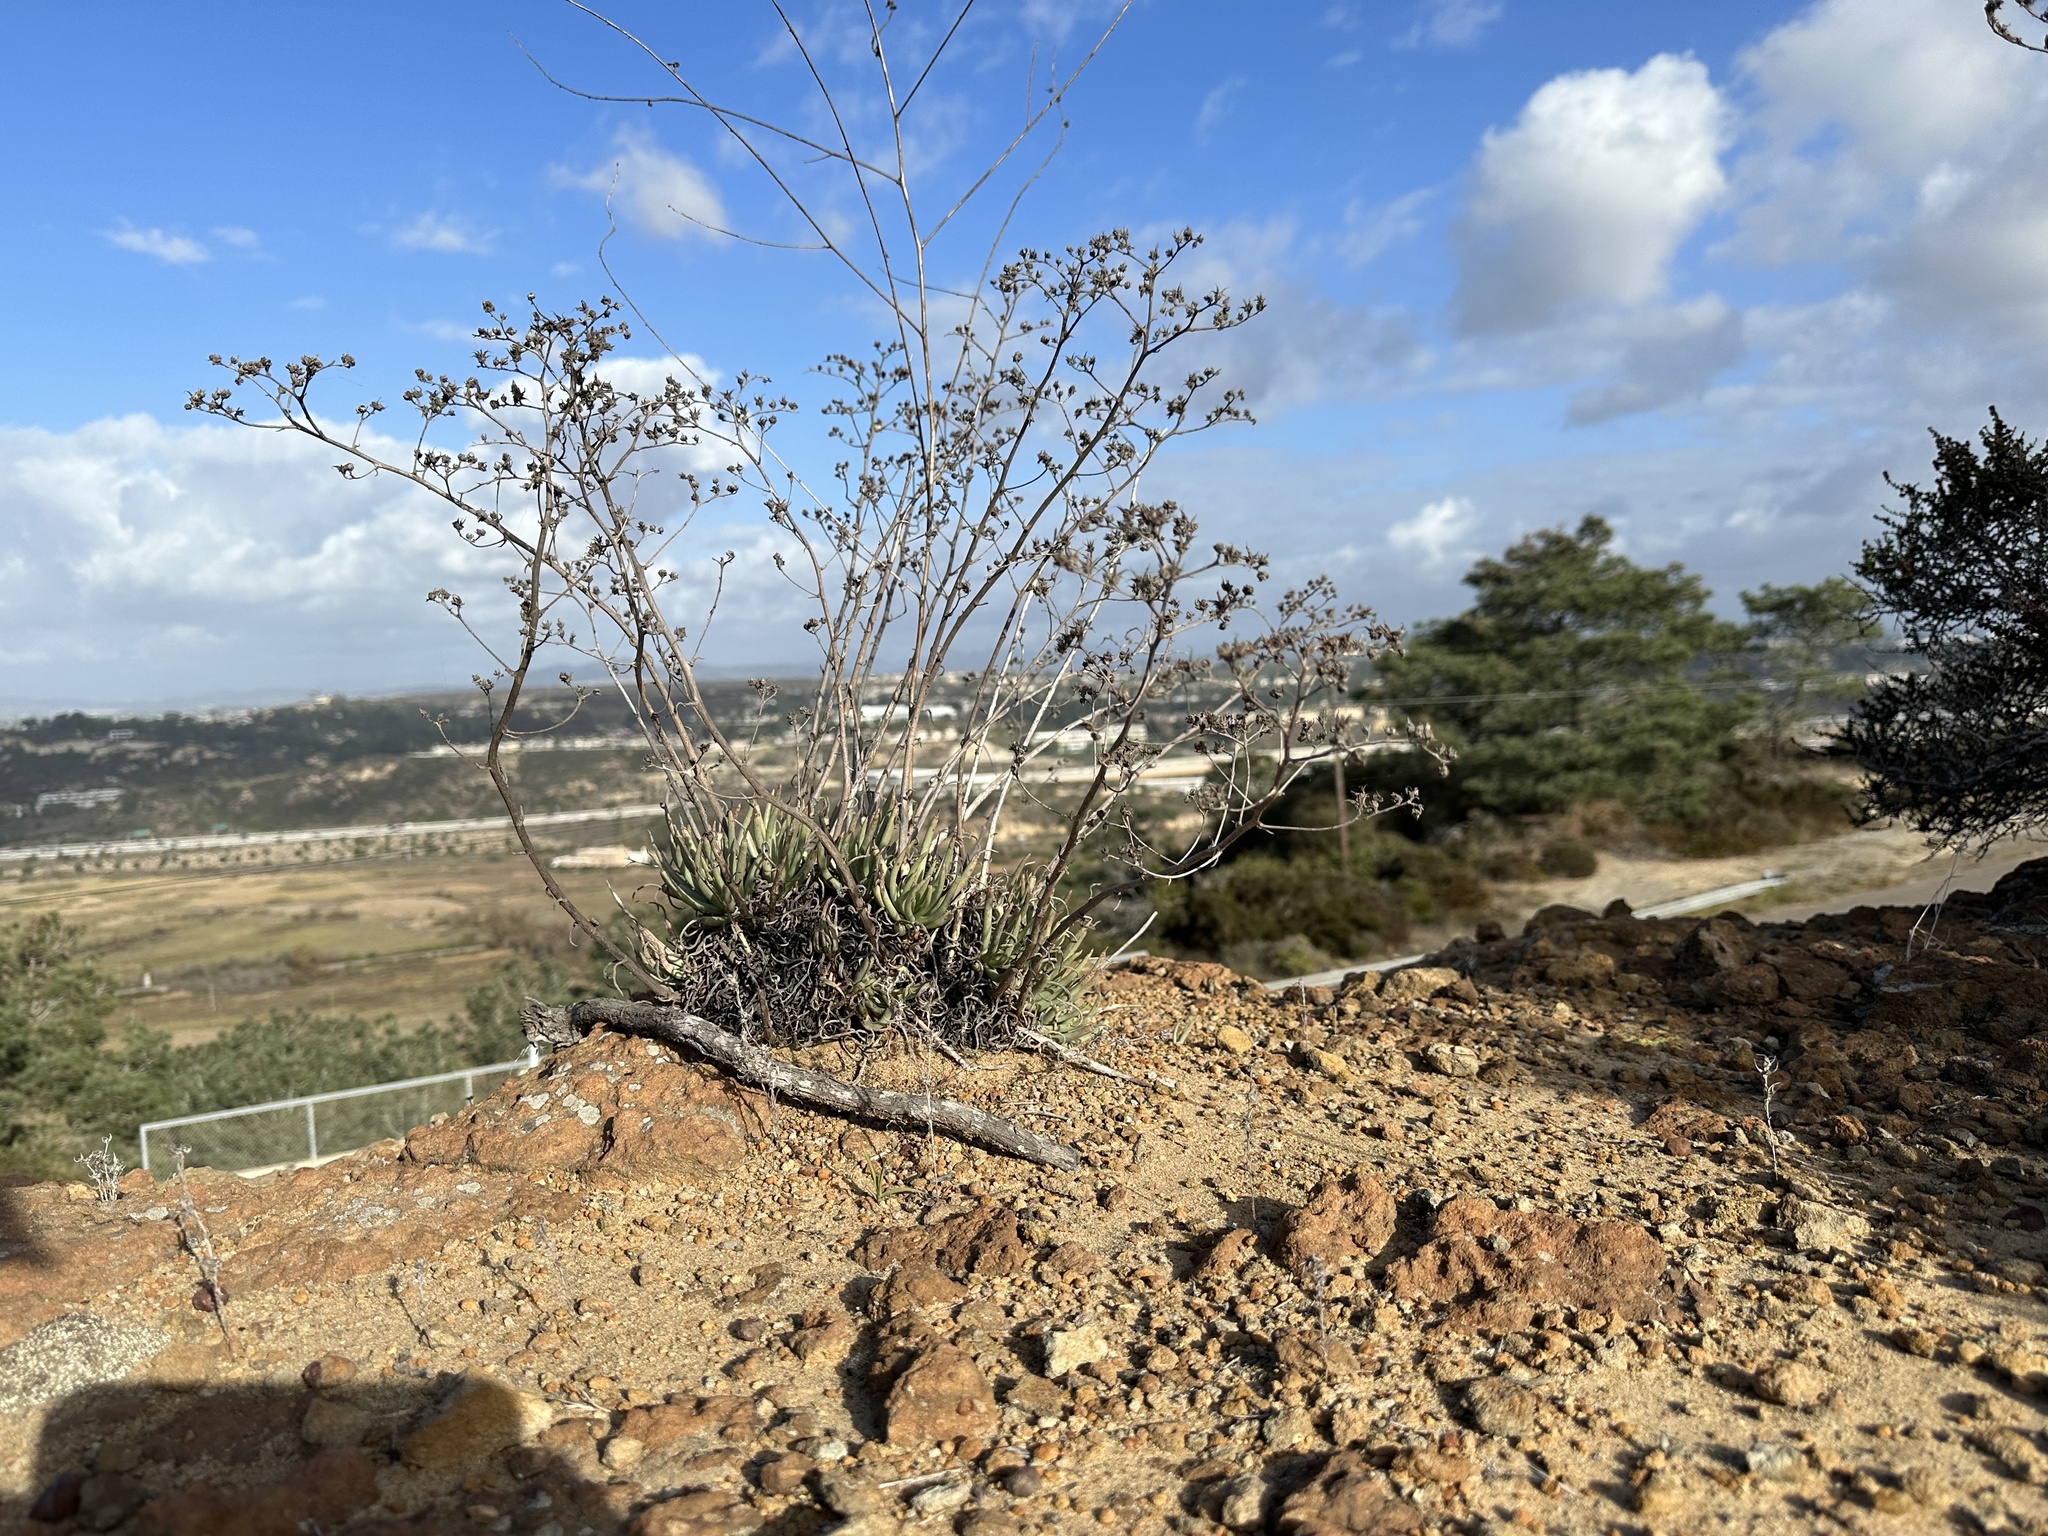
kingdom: Plantae
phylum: Tracheophyta
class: Magnoliopsida
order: Saxifragales
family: Crassulaceae
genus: Dudleya
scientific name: Dudleya edulis
